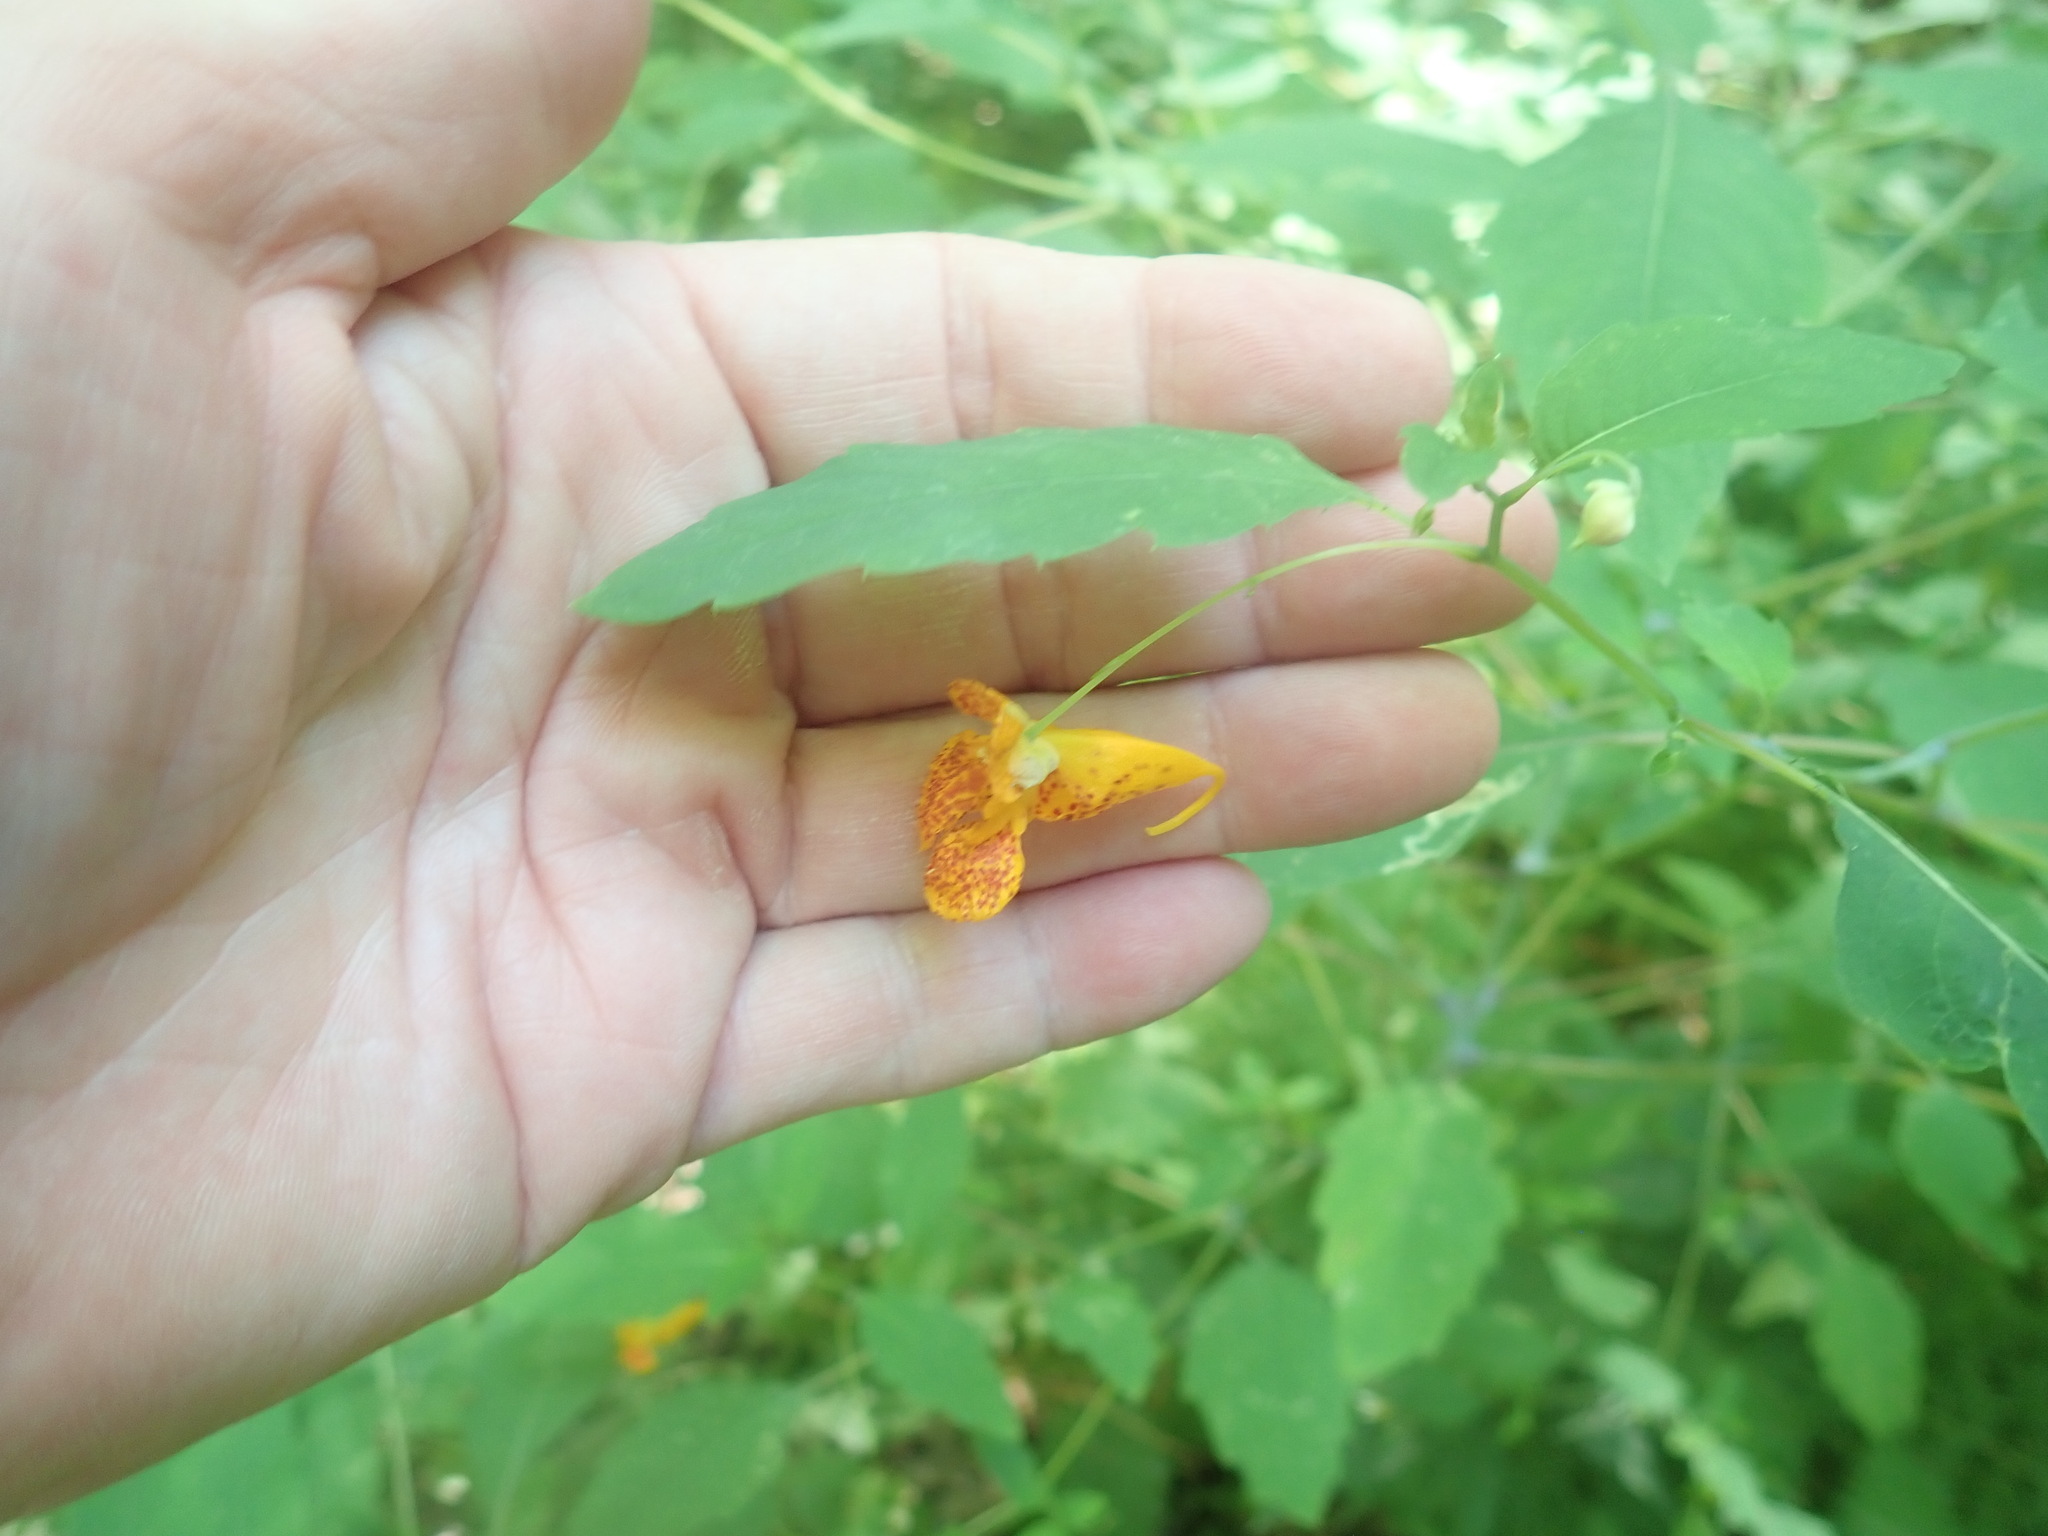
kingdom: Plantae
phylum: Tracheophyta
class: Magnoliopsida
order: Ericales
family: Balsaminaceae
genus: Impatiens
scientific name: Impatiens capensis
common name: Orange balsam
